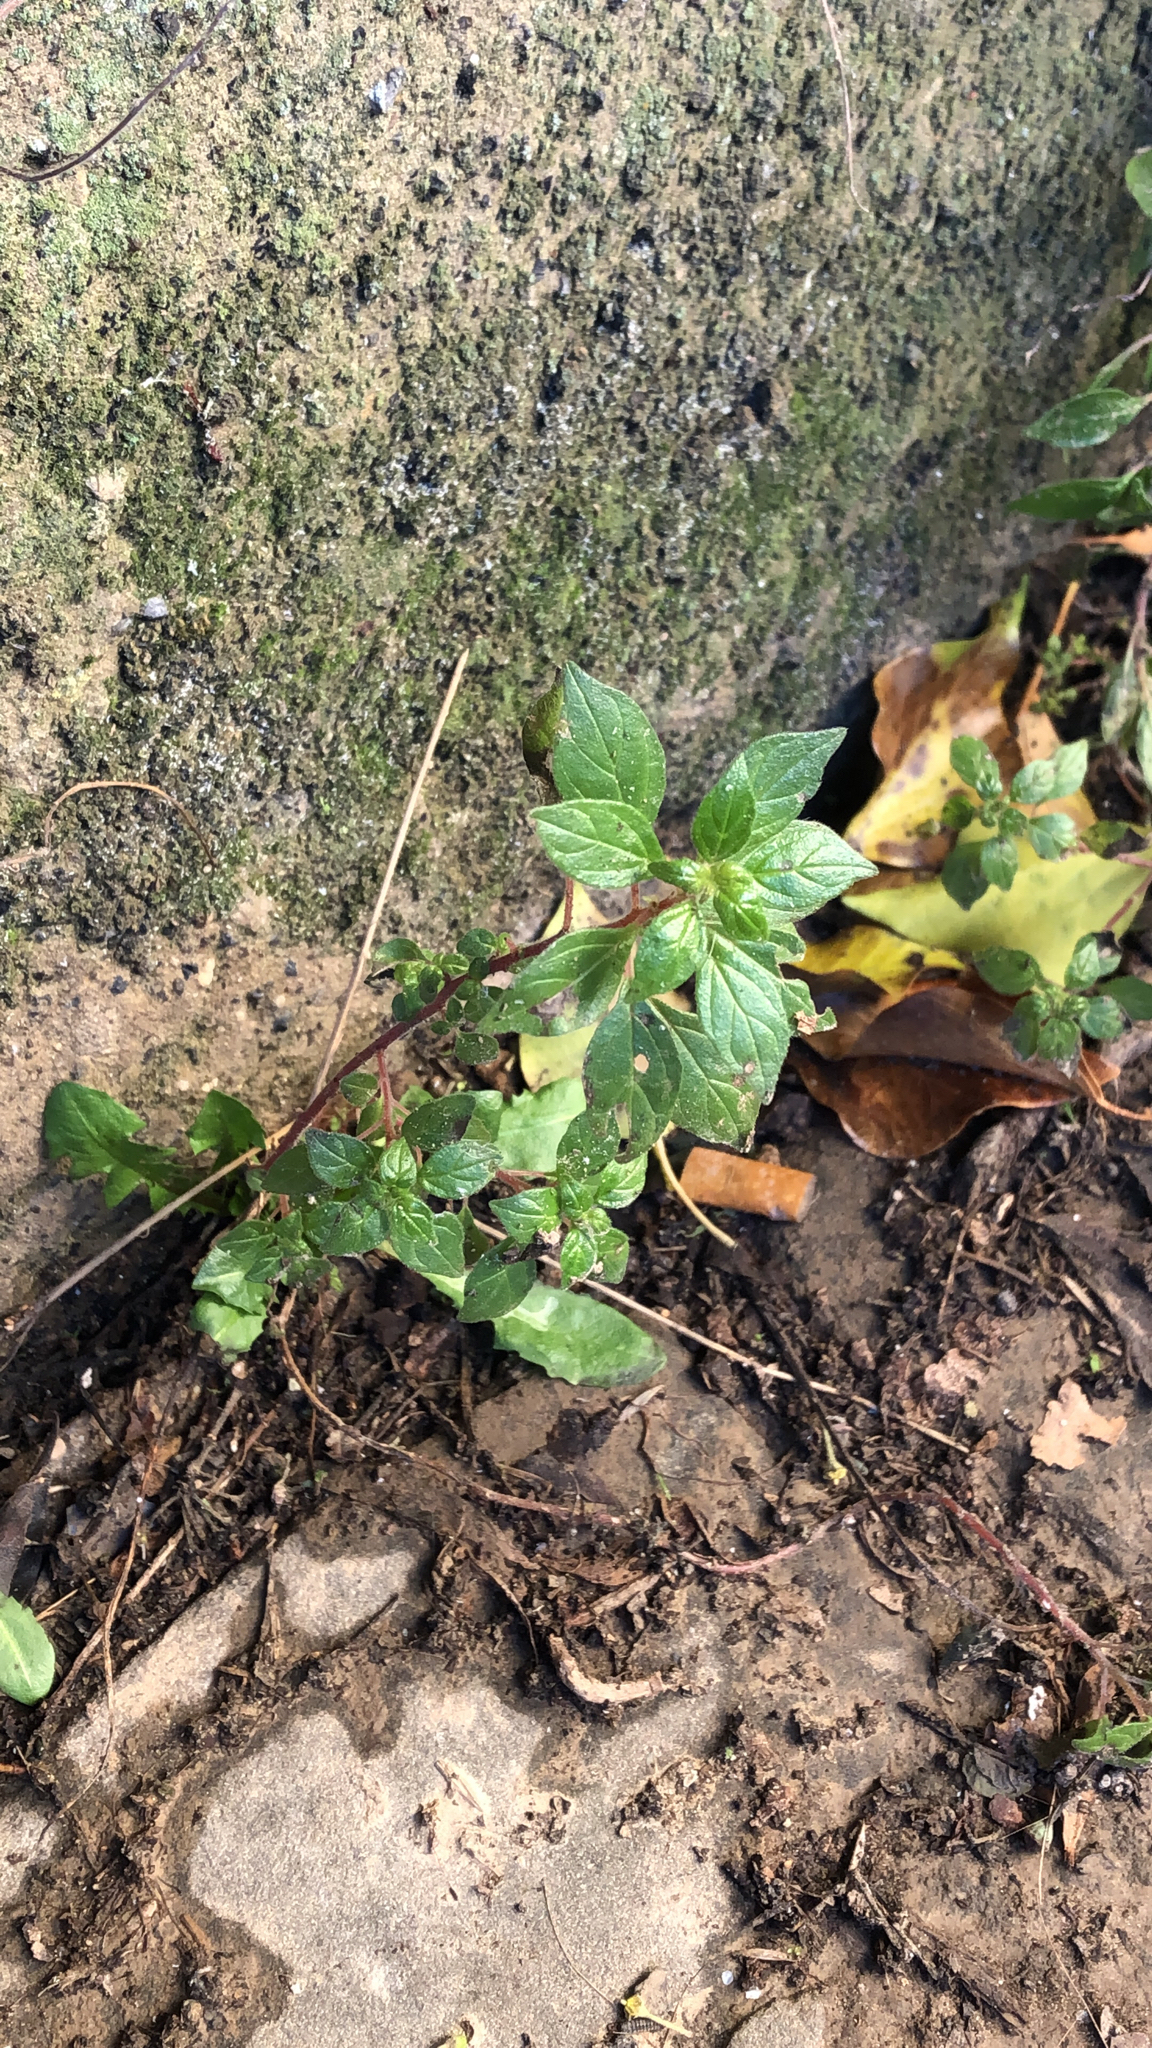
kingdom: Plantae
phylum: Tracheophyta
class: Magnoliopsida
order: Rosales
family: Urticaceae
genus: Parietaria
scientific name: Parietaria judaica
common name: Pellitory-of-the-wall
